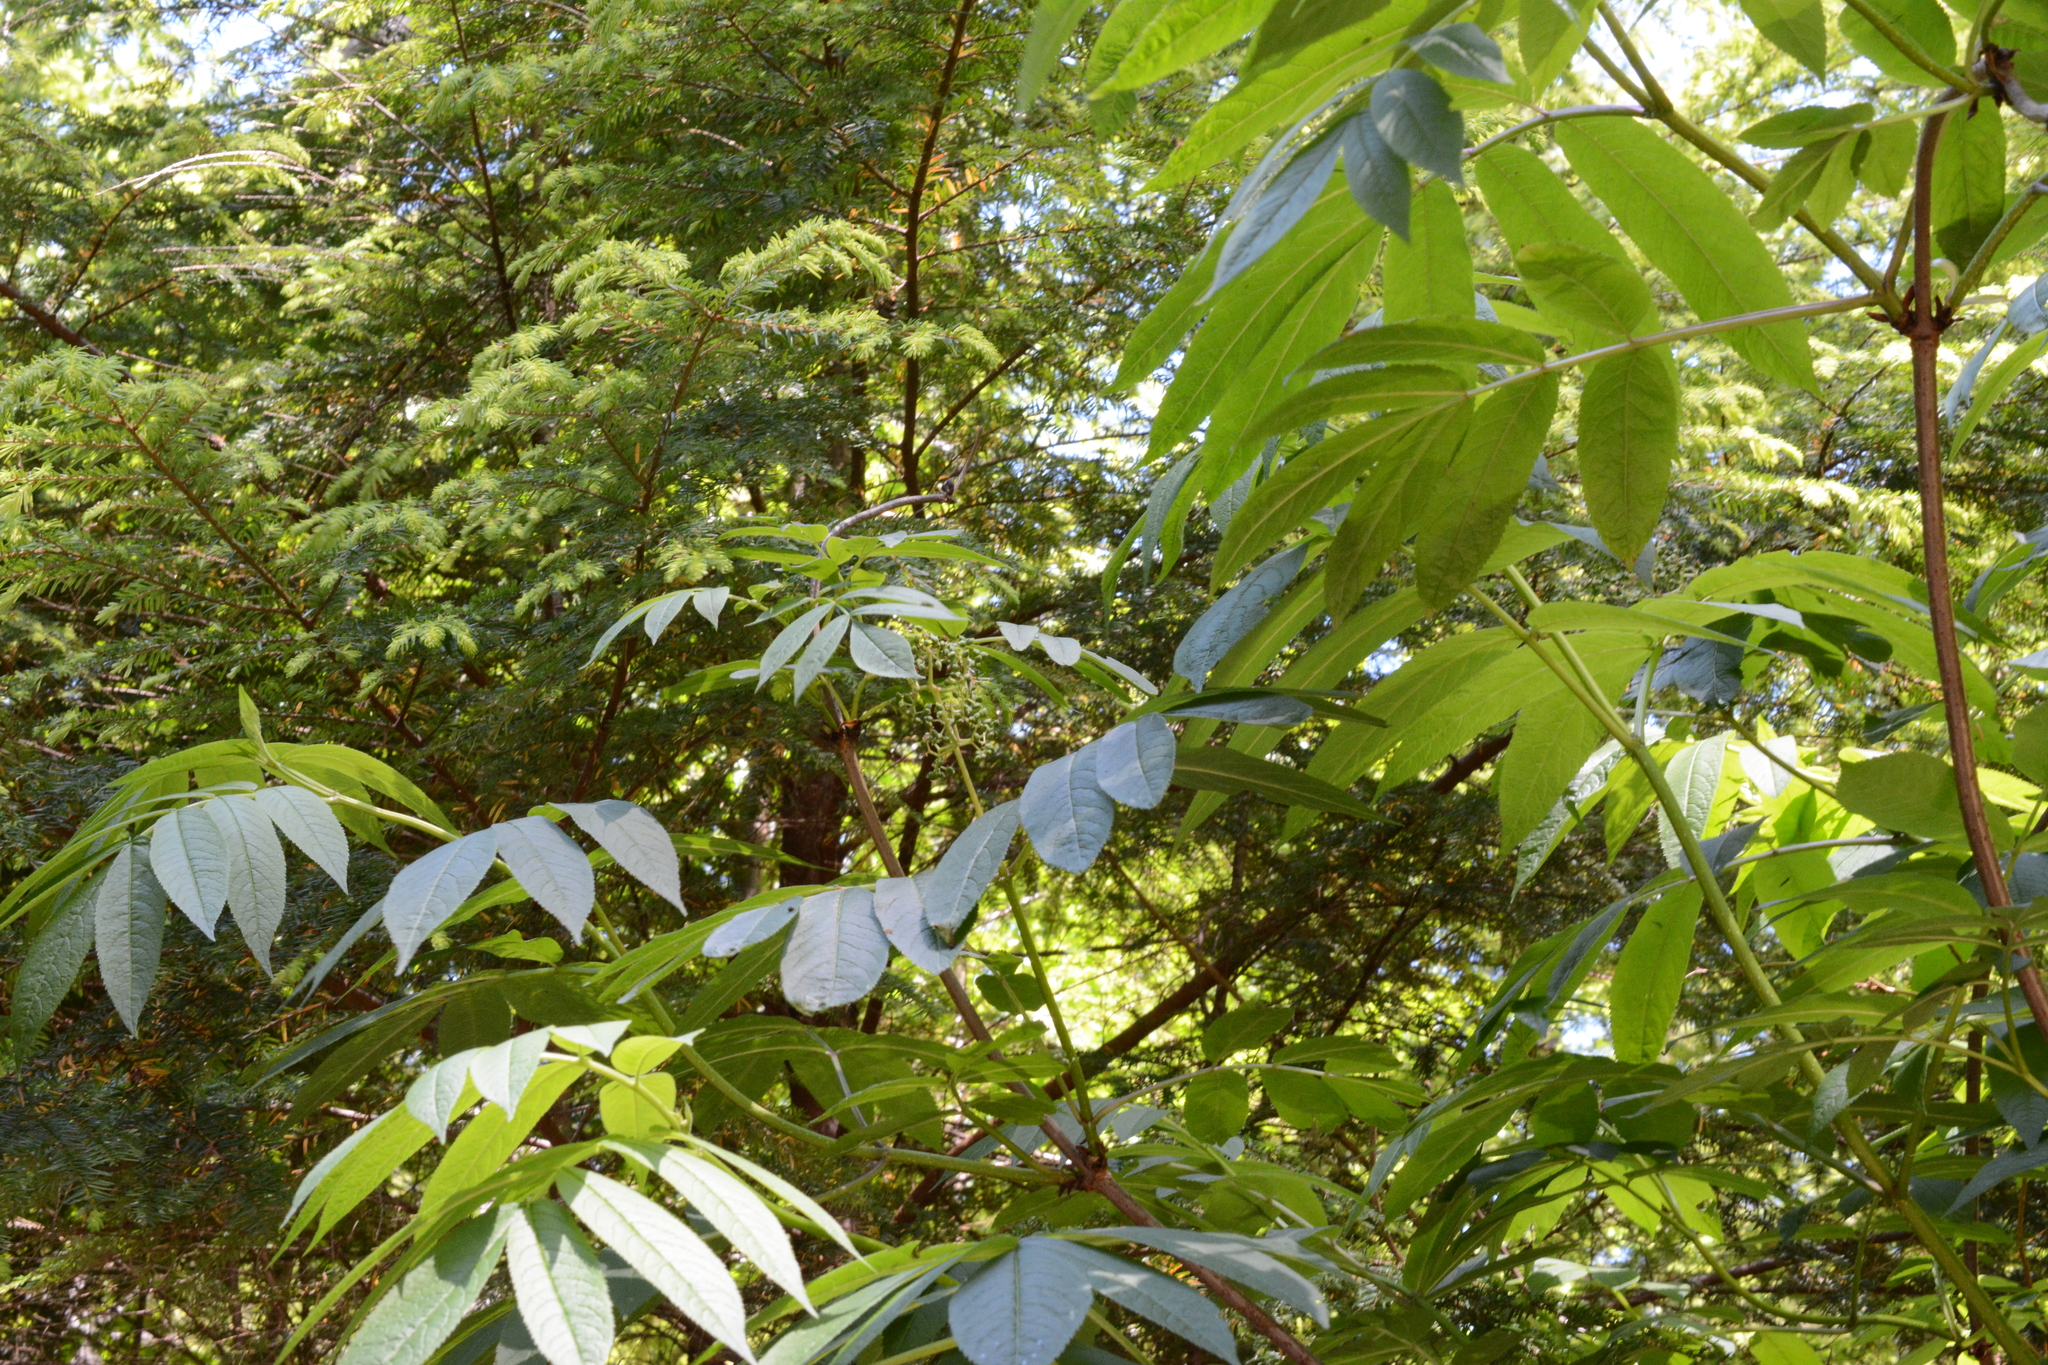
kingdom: Plantae
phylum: Tracheophyta
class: Magnoliopsida
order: Dipsacales
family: Viburnaceae
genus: Sambucus
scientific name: Sambucus racemosa
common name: Red-berried elder
